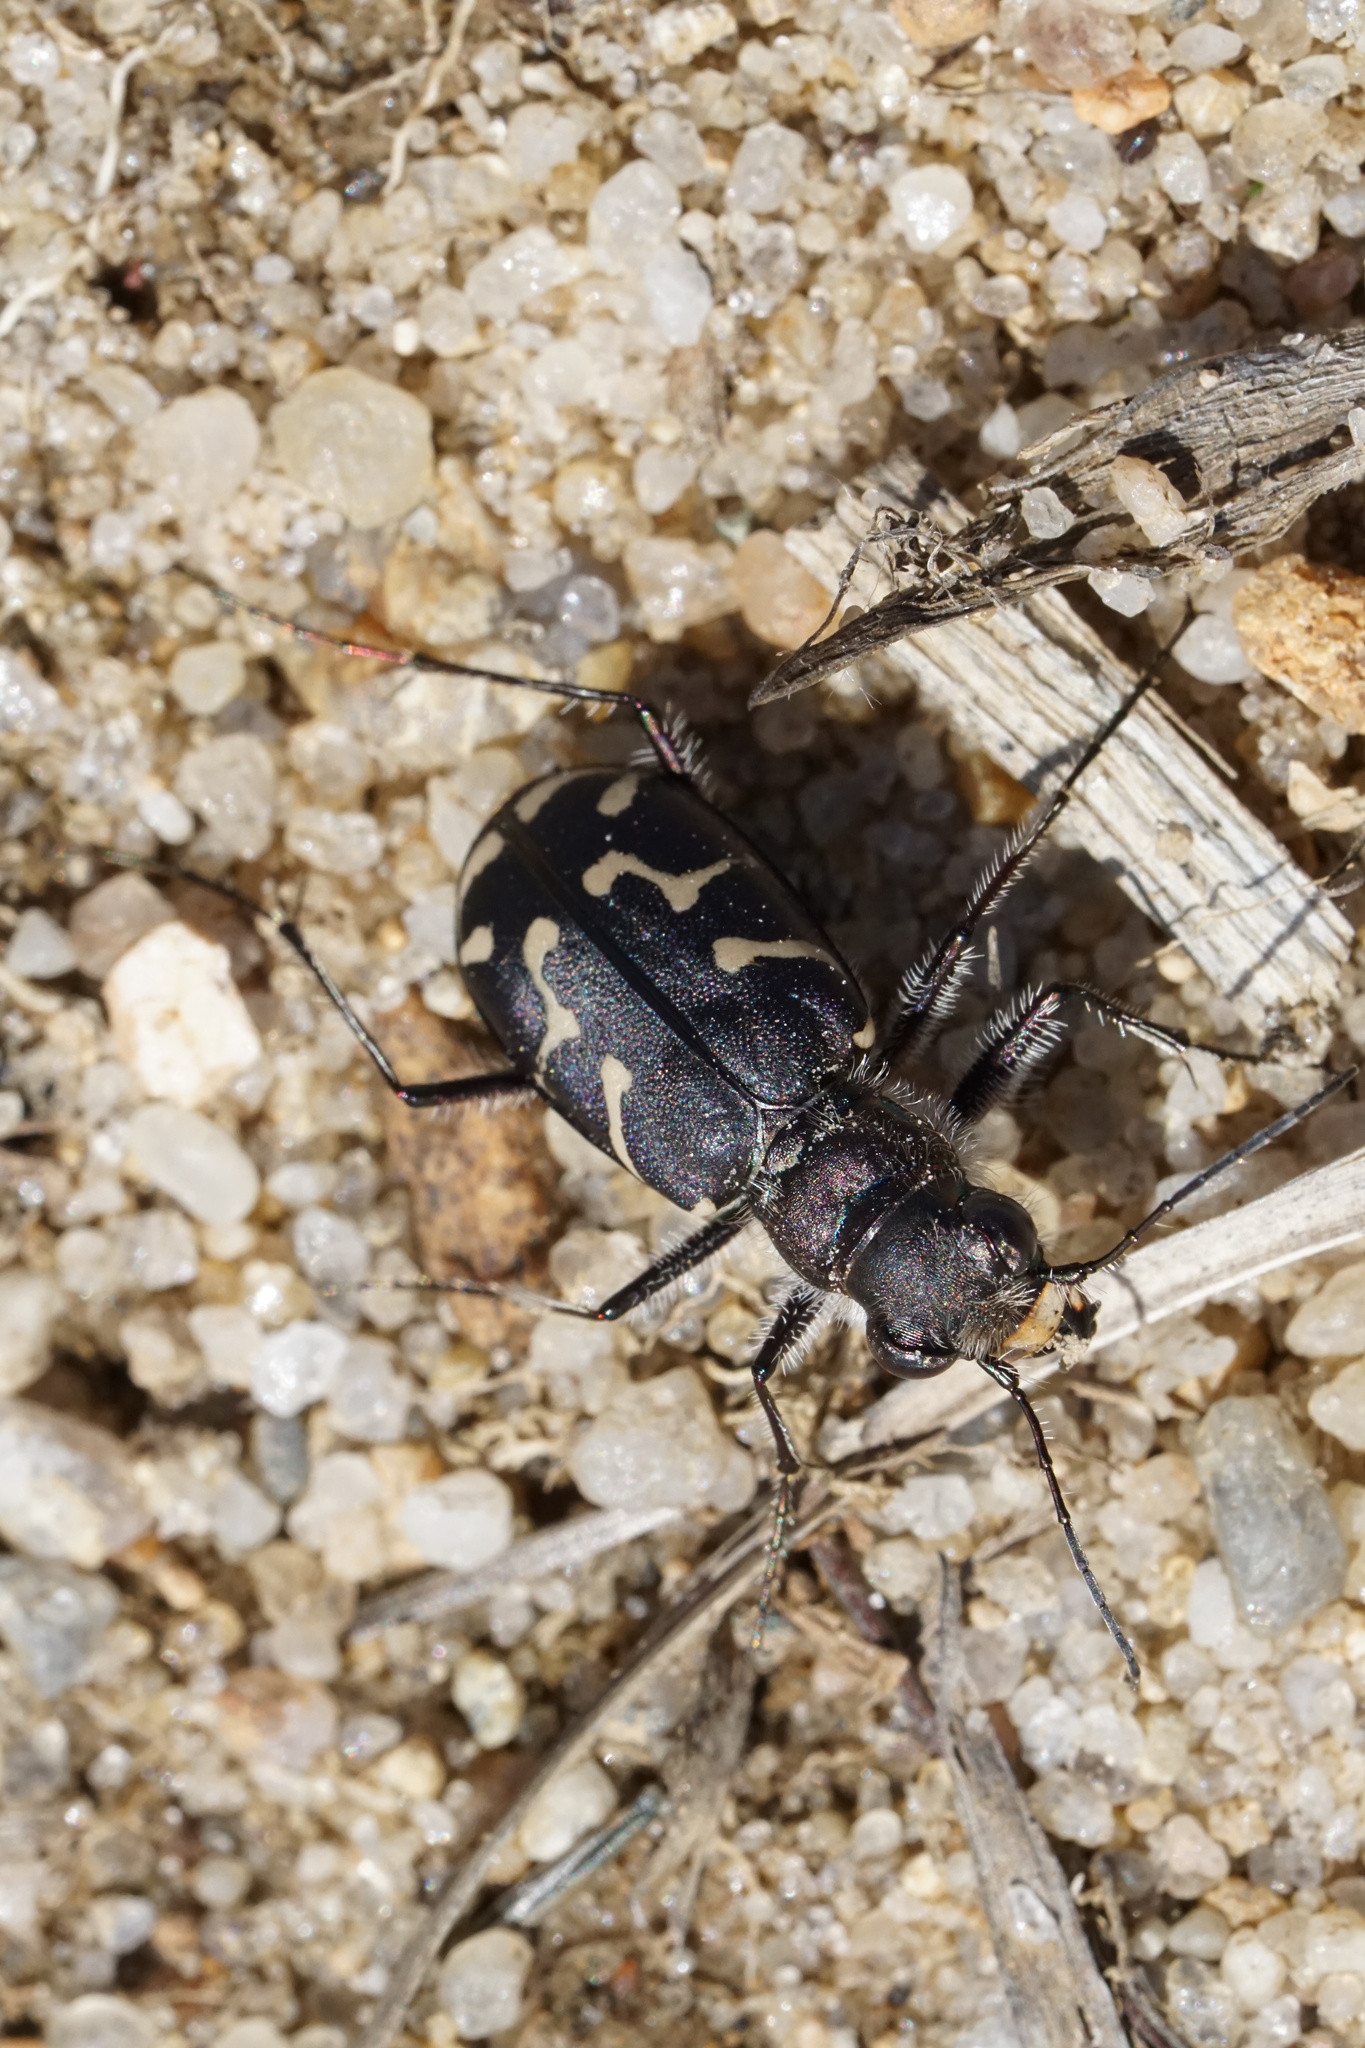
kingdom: Animalia
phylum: Arthropoda
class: Insecta
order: Coleoptera
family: Carabidae
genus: Cicindela
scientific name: Cicindela tranquebarica
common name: Oblique-lined tiger beetle
